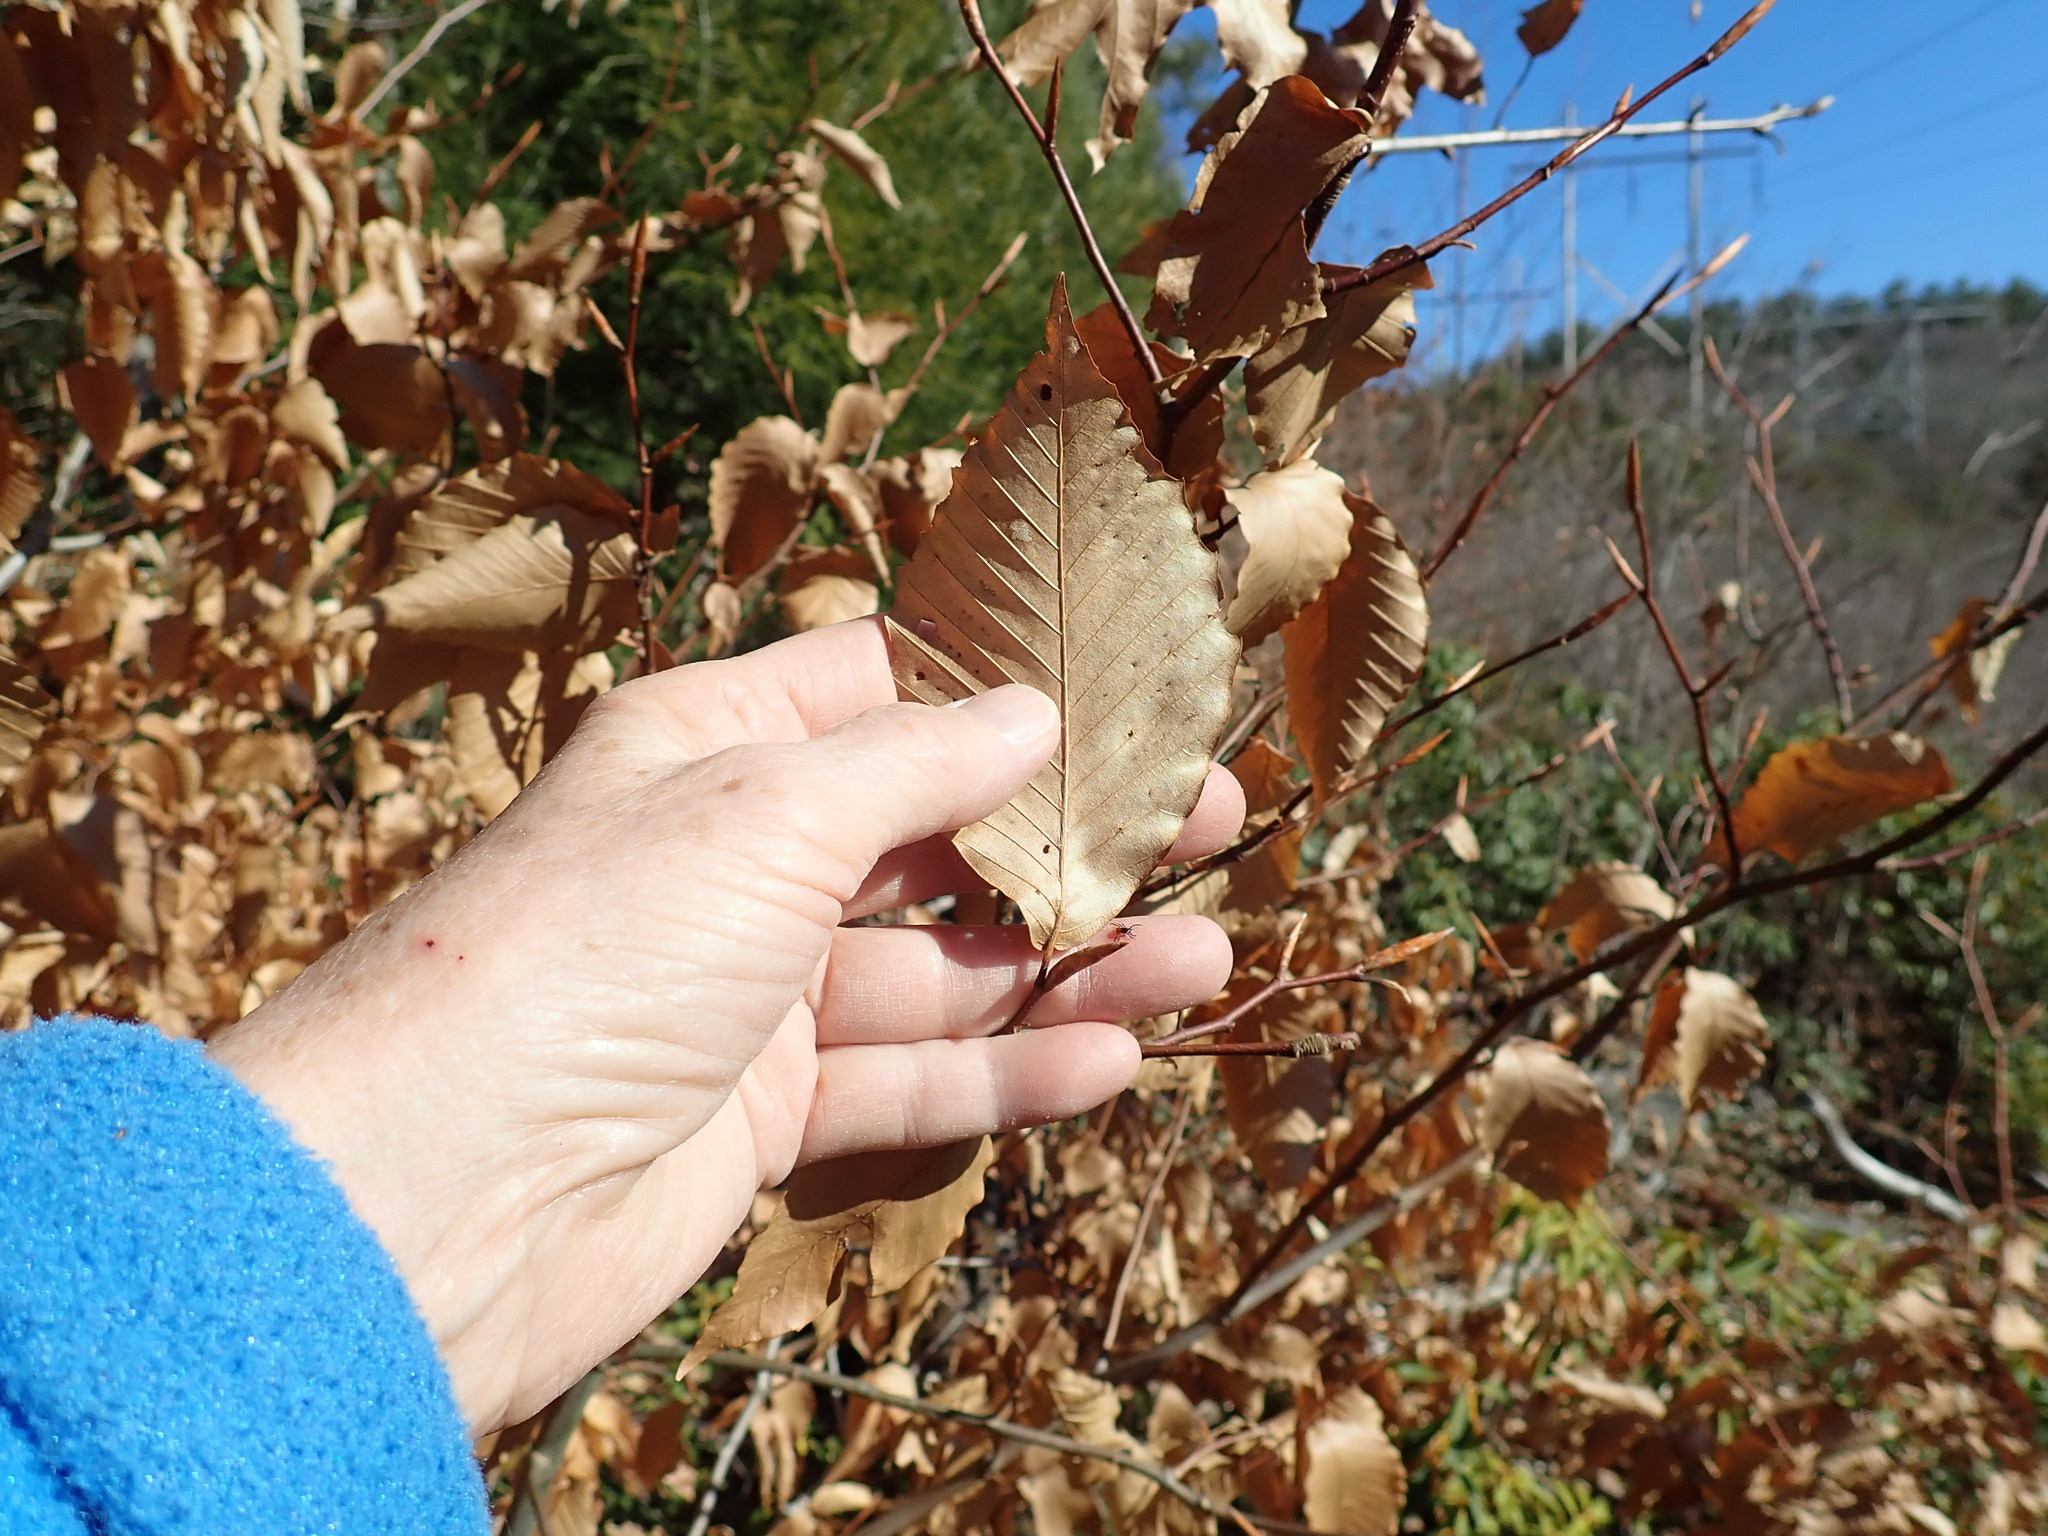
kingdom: Plantae
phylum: Tracheophyta
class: Magnoliopsida
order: Fagales
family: Fagaceae
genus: Fagus
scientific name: Fagus grandifolia
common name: American beech
